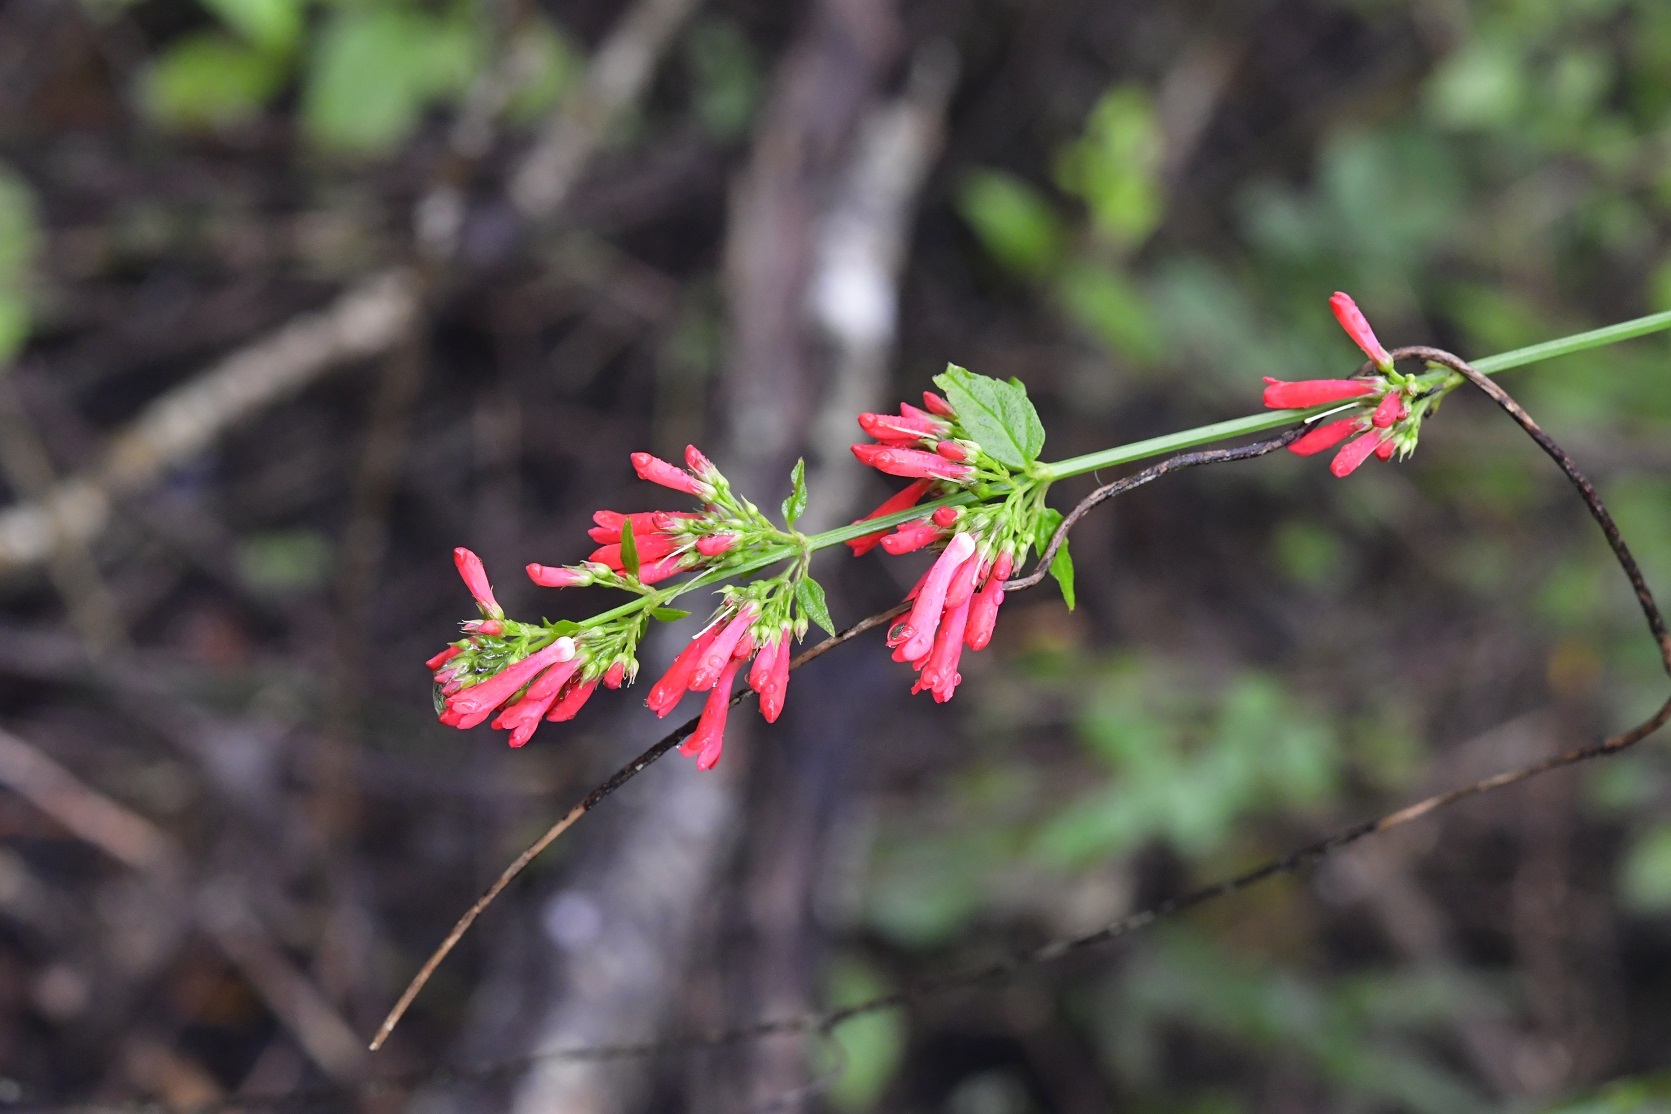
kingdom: Plantae
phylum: Tracheophyta
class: Magnoliopsida
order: Lamiales
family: Plantaginaceae
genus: Russelia
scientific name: Russelia sarmentosa
